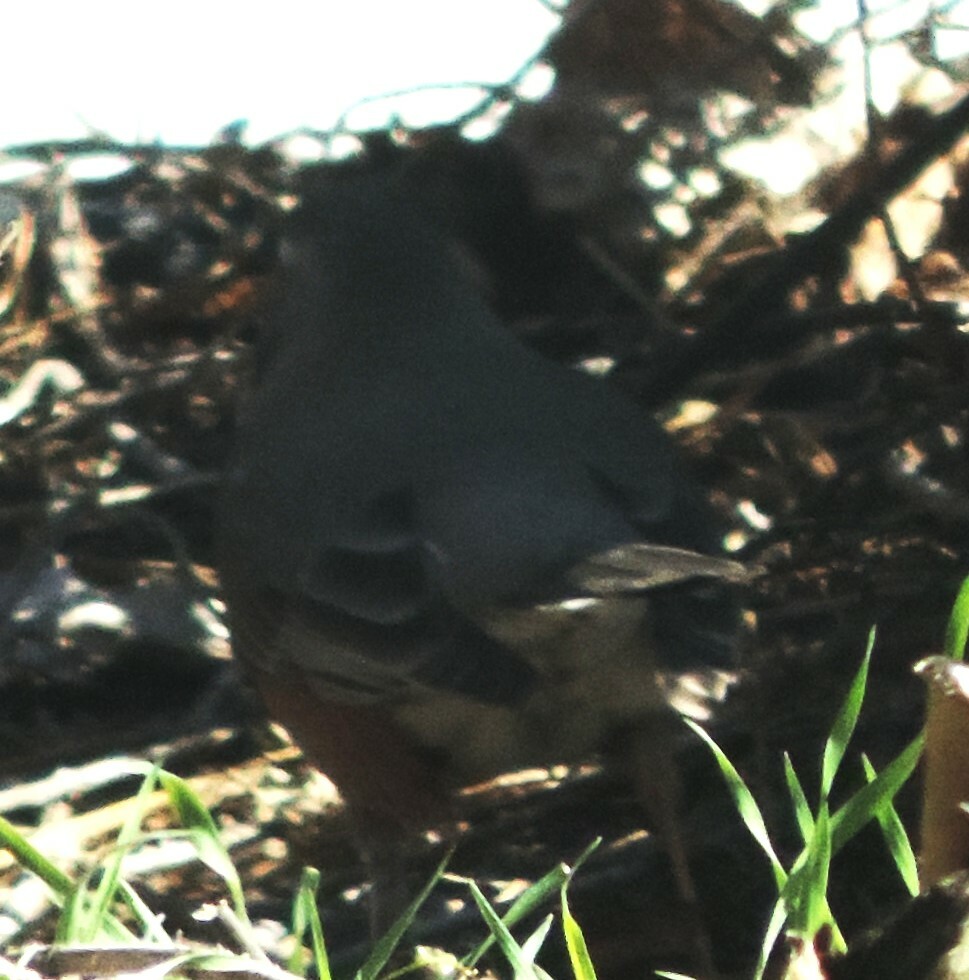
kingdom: Animalia
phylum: Chordata
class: Aves
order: Passeriformes
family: Turdidae
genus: Turdus
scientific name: Turdus migratorius
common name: American robin
